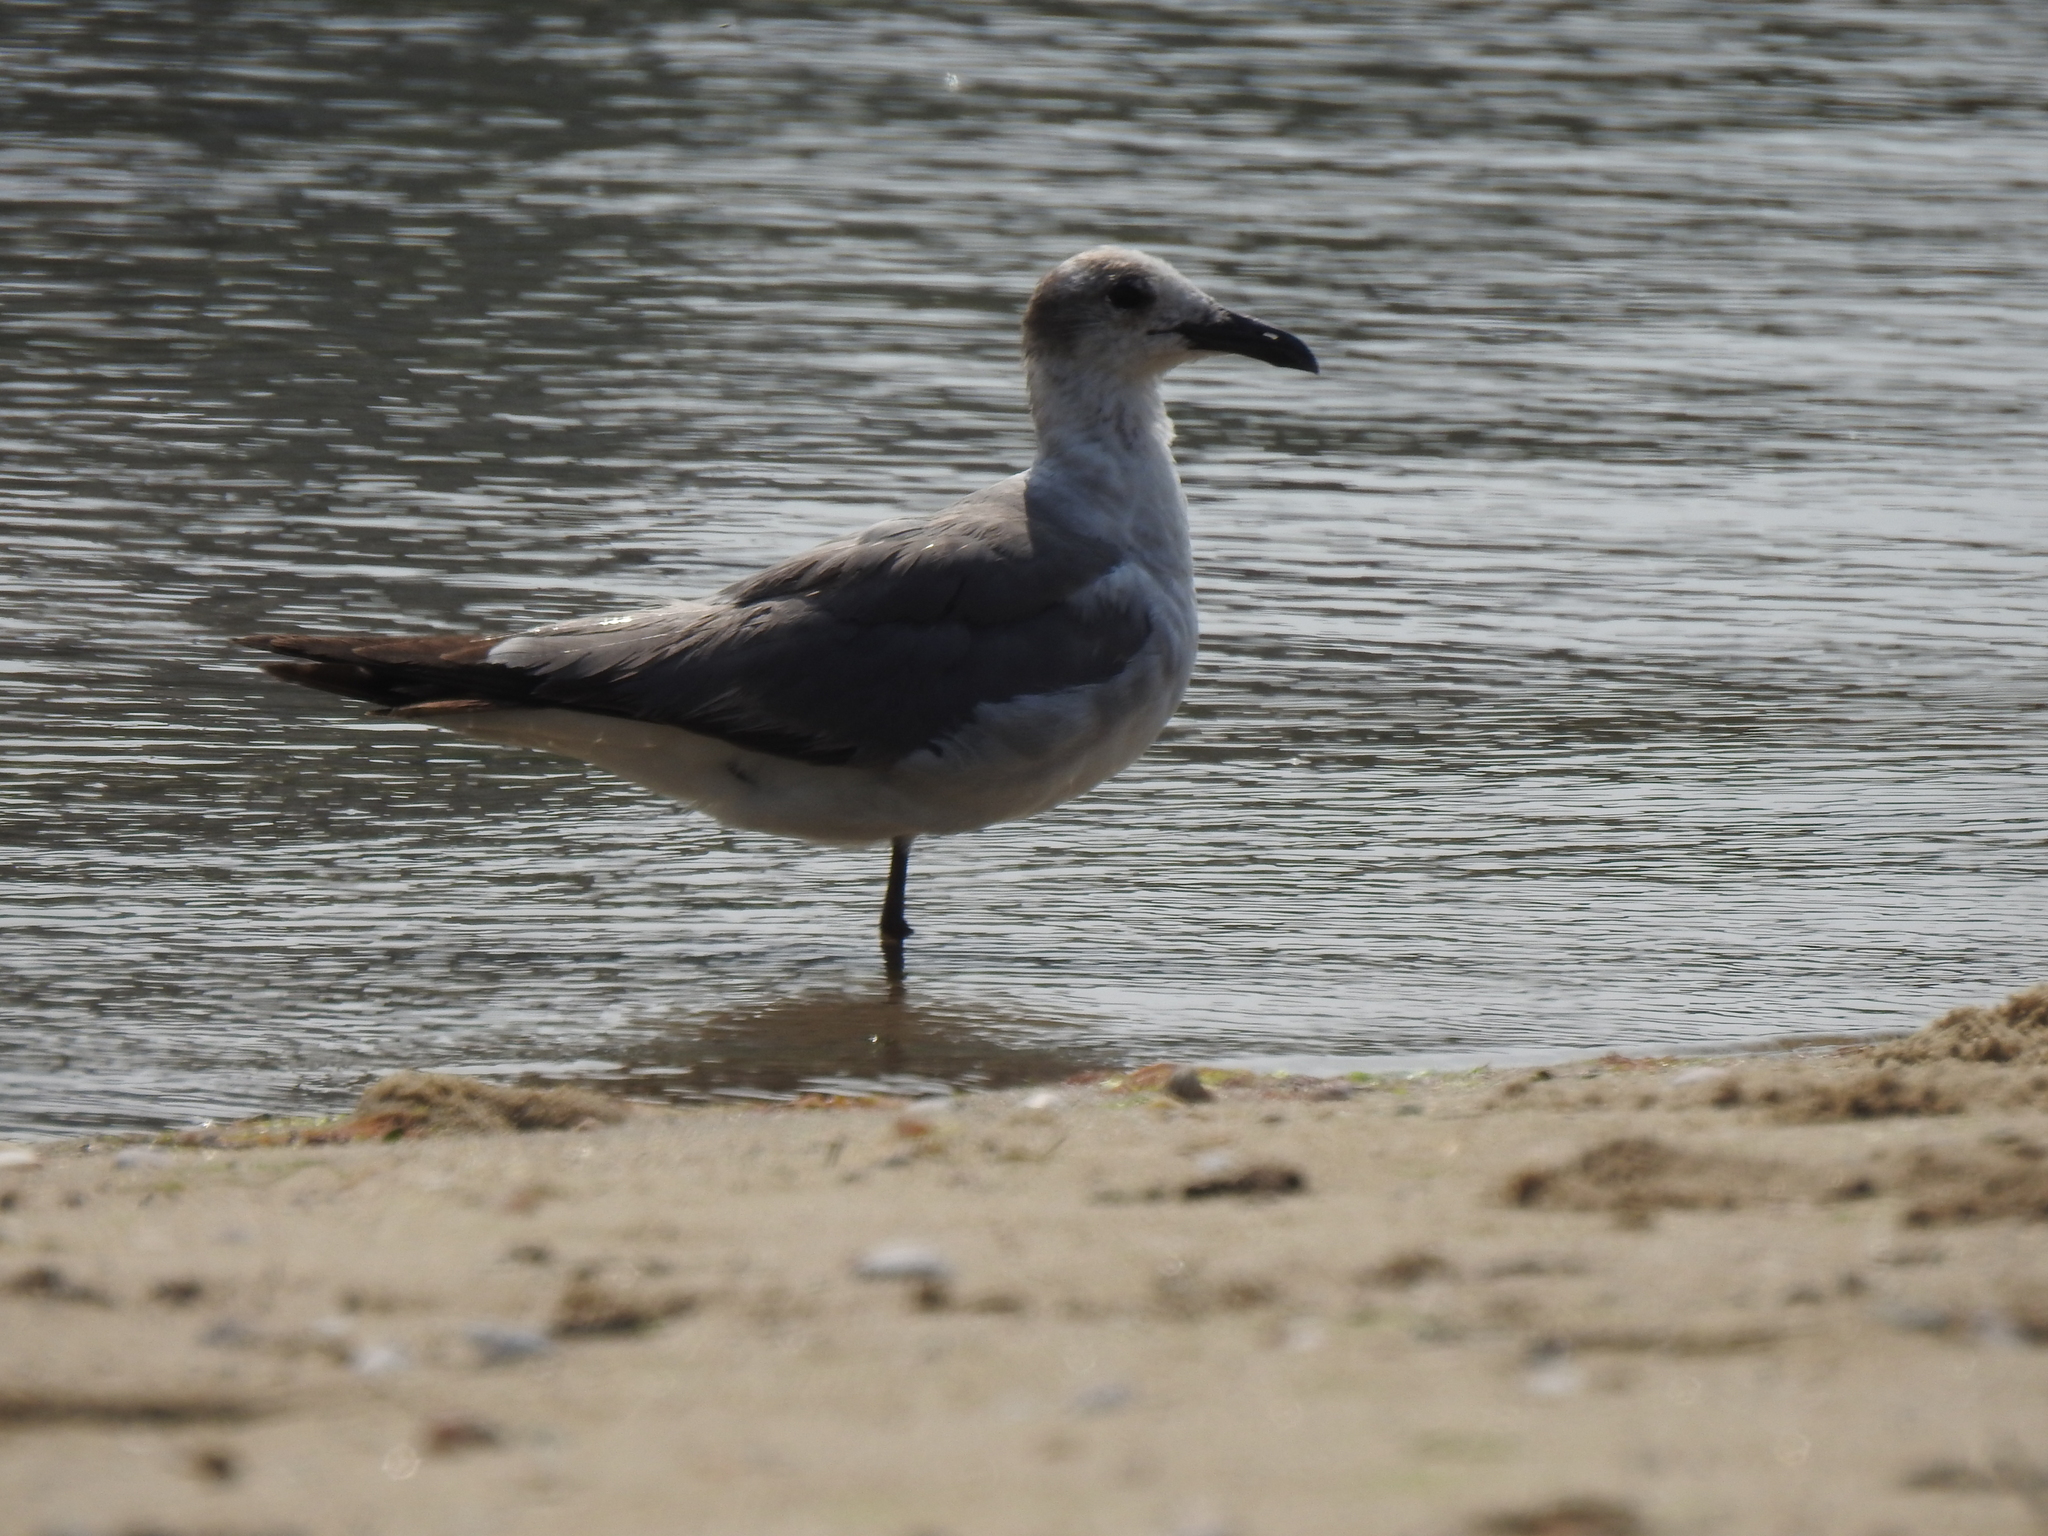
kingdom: Animalia
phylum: Chordata
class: Aves
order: Charadriiformes
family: Laridae
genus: Leucophaeus
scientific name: Leucophaeus atricilla
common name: Laughing gull
